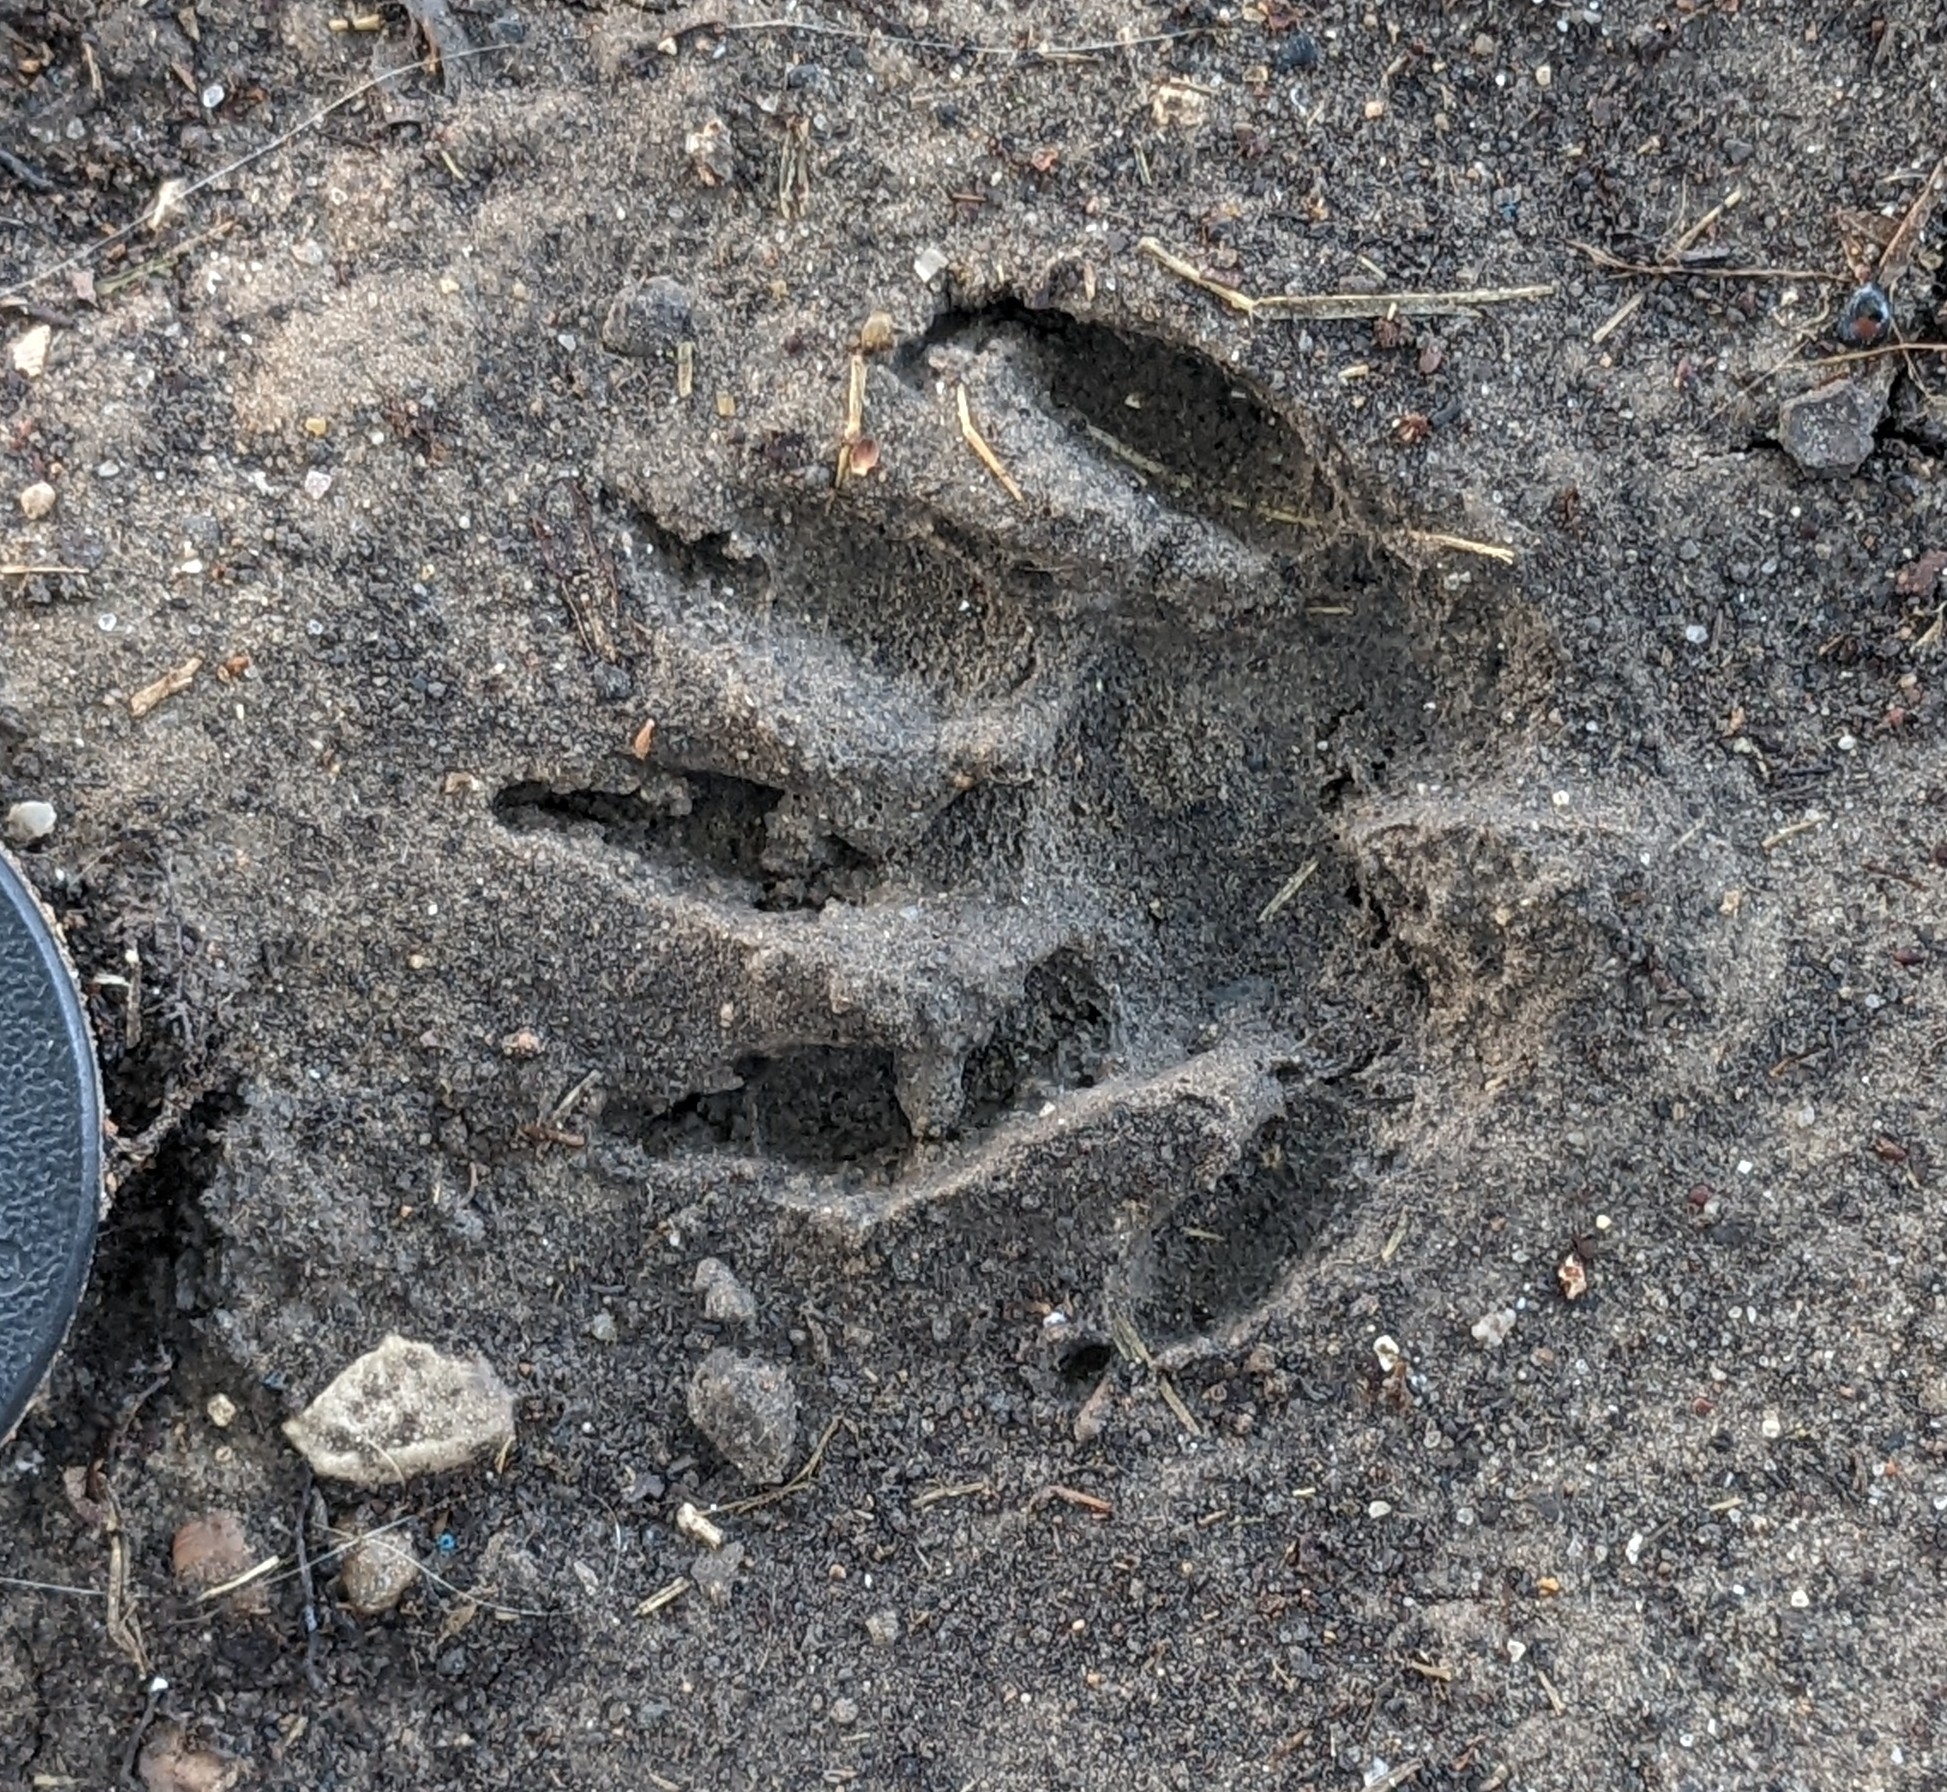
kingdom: Animalia
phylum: Chordata
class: Mammalia
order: Carnivora
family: Procyonidae
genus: Procyon
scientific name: Procyon lotor
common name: Raccoon
